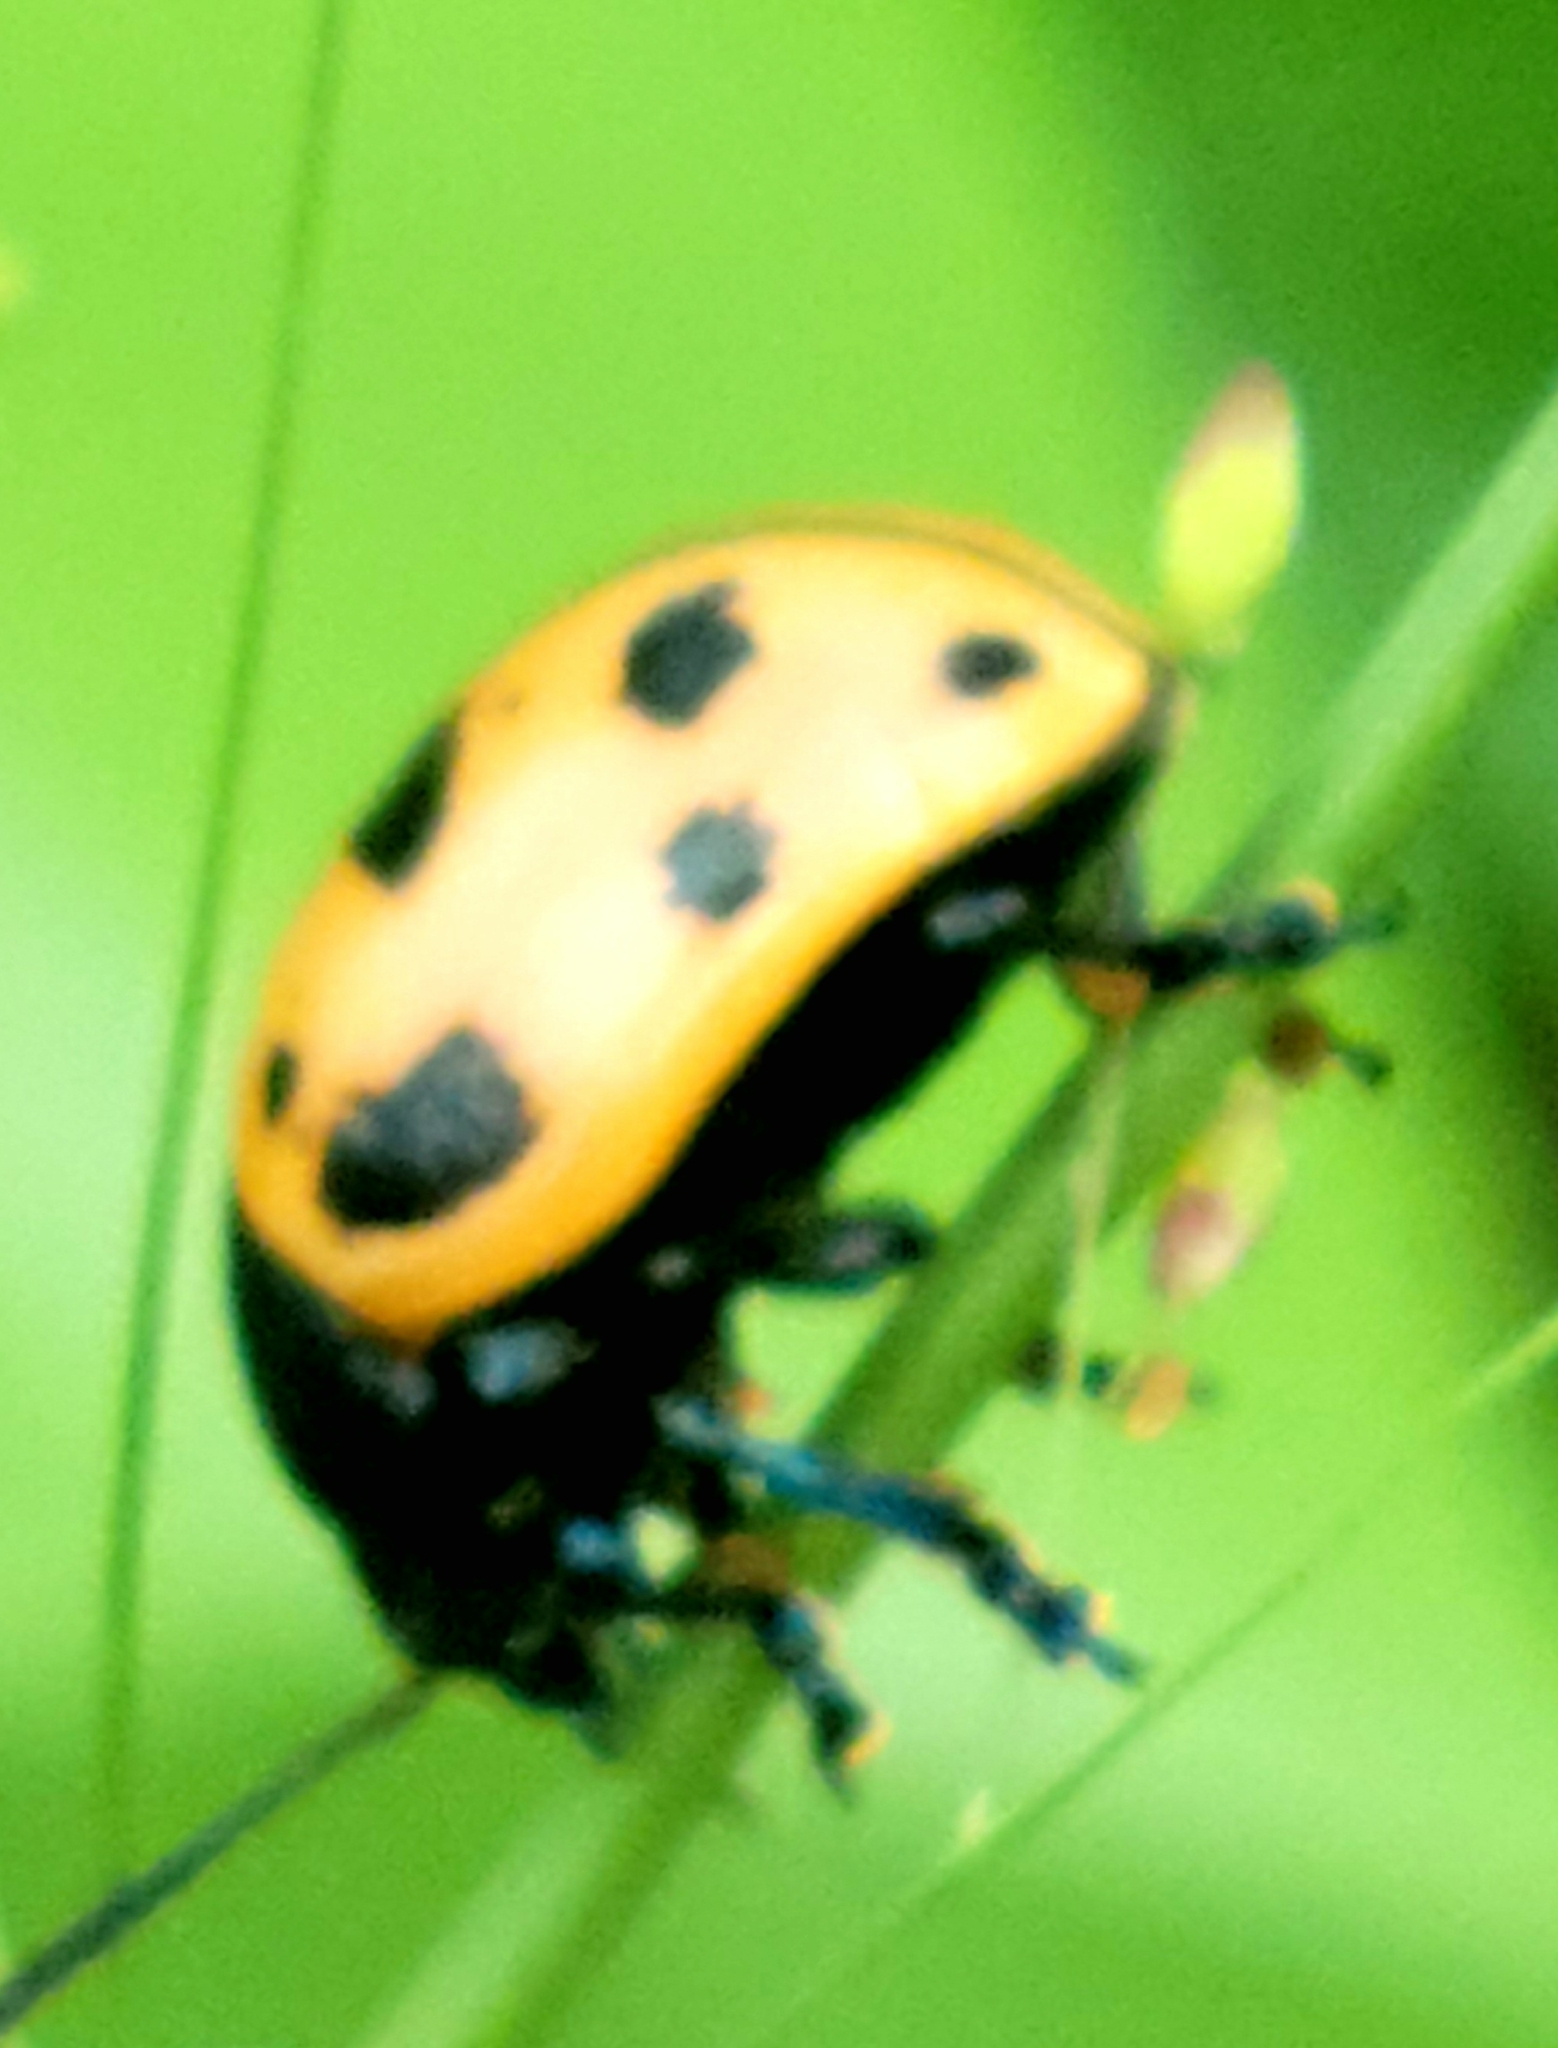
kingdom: Animalia
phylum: Arthropoda
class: Insecta
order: Coleoptera
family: Chrysomelidae
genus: Labidomera
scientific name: Labidomera clivicollis
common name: Swamp milkweed leaf beetle
